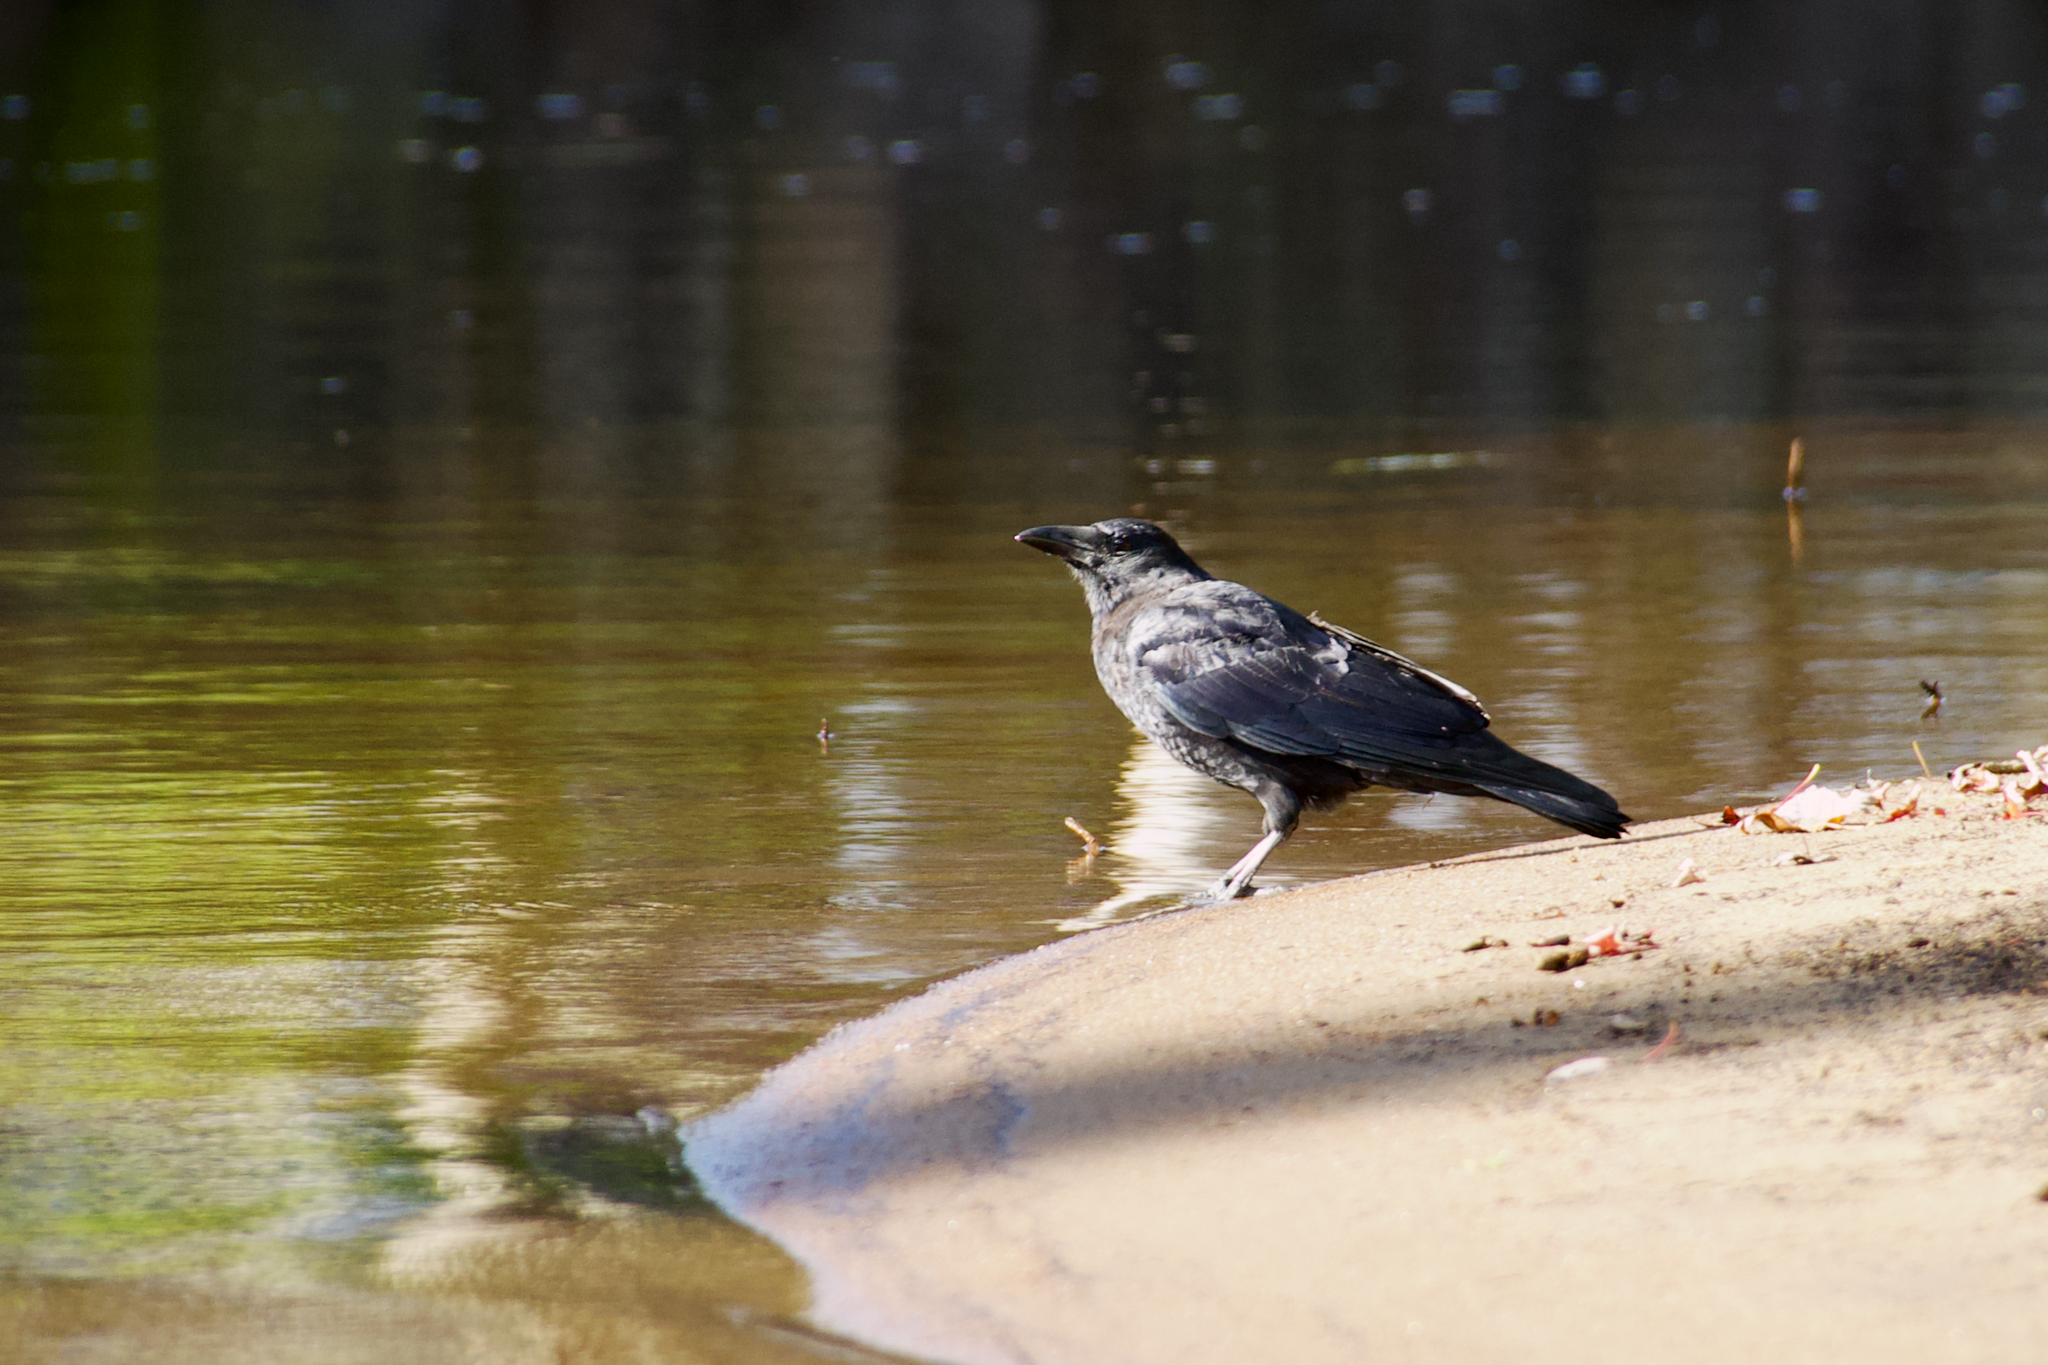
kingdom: Animalia
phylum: Chordata
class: Aves
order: Passeriformes
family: Corvidae
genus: Corvus
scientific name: Corvus brachyrhynchos
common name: American crow
